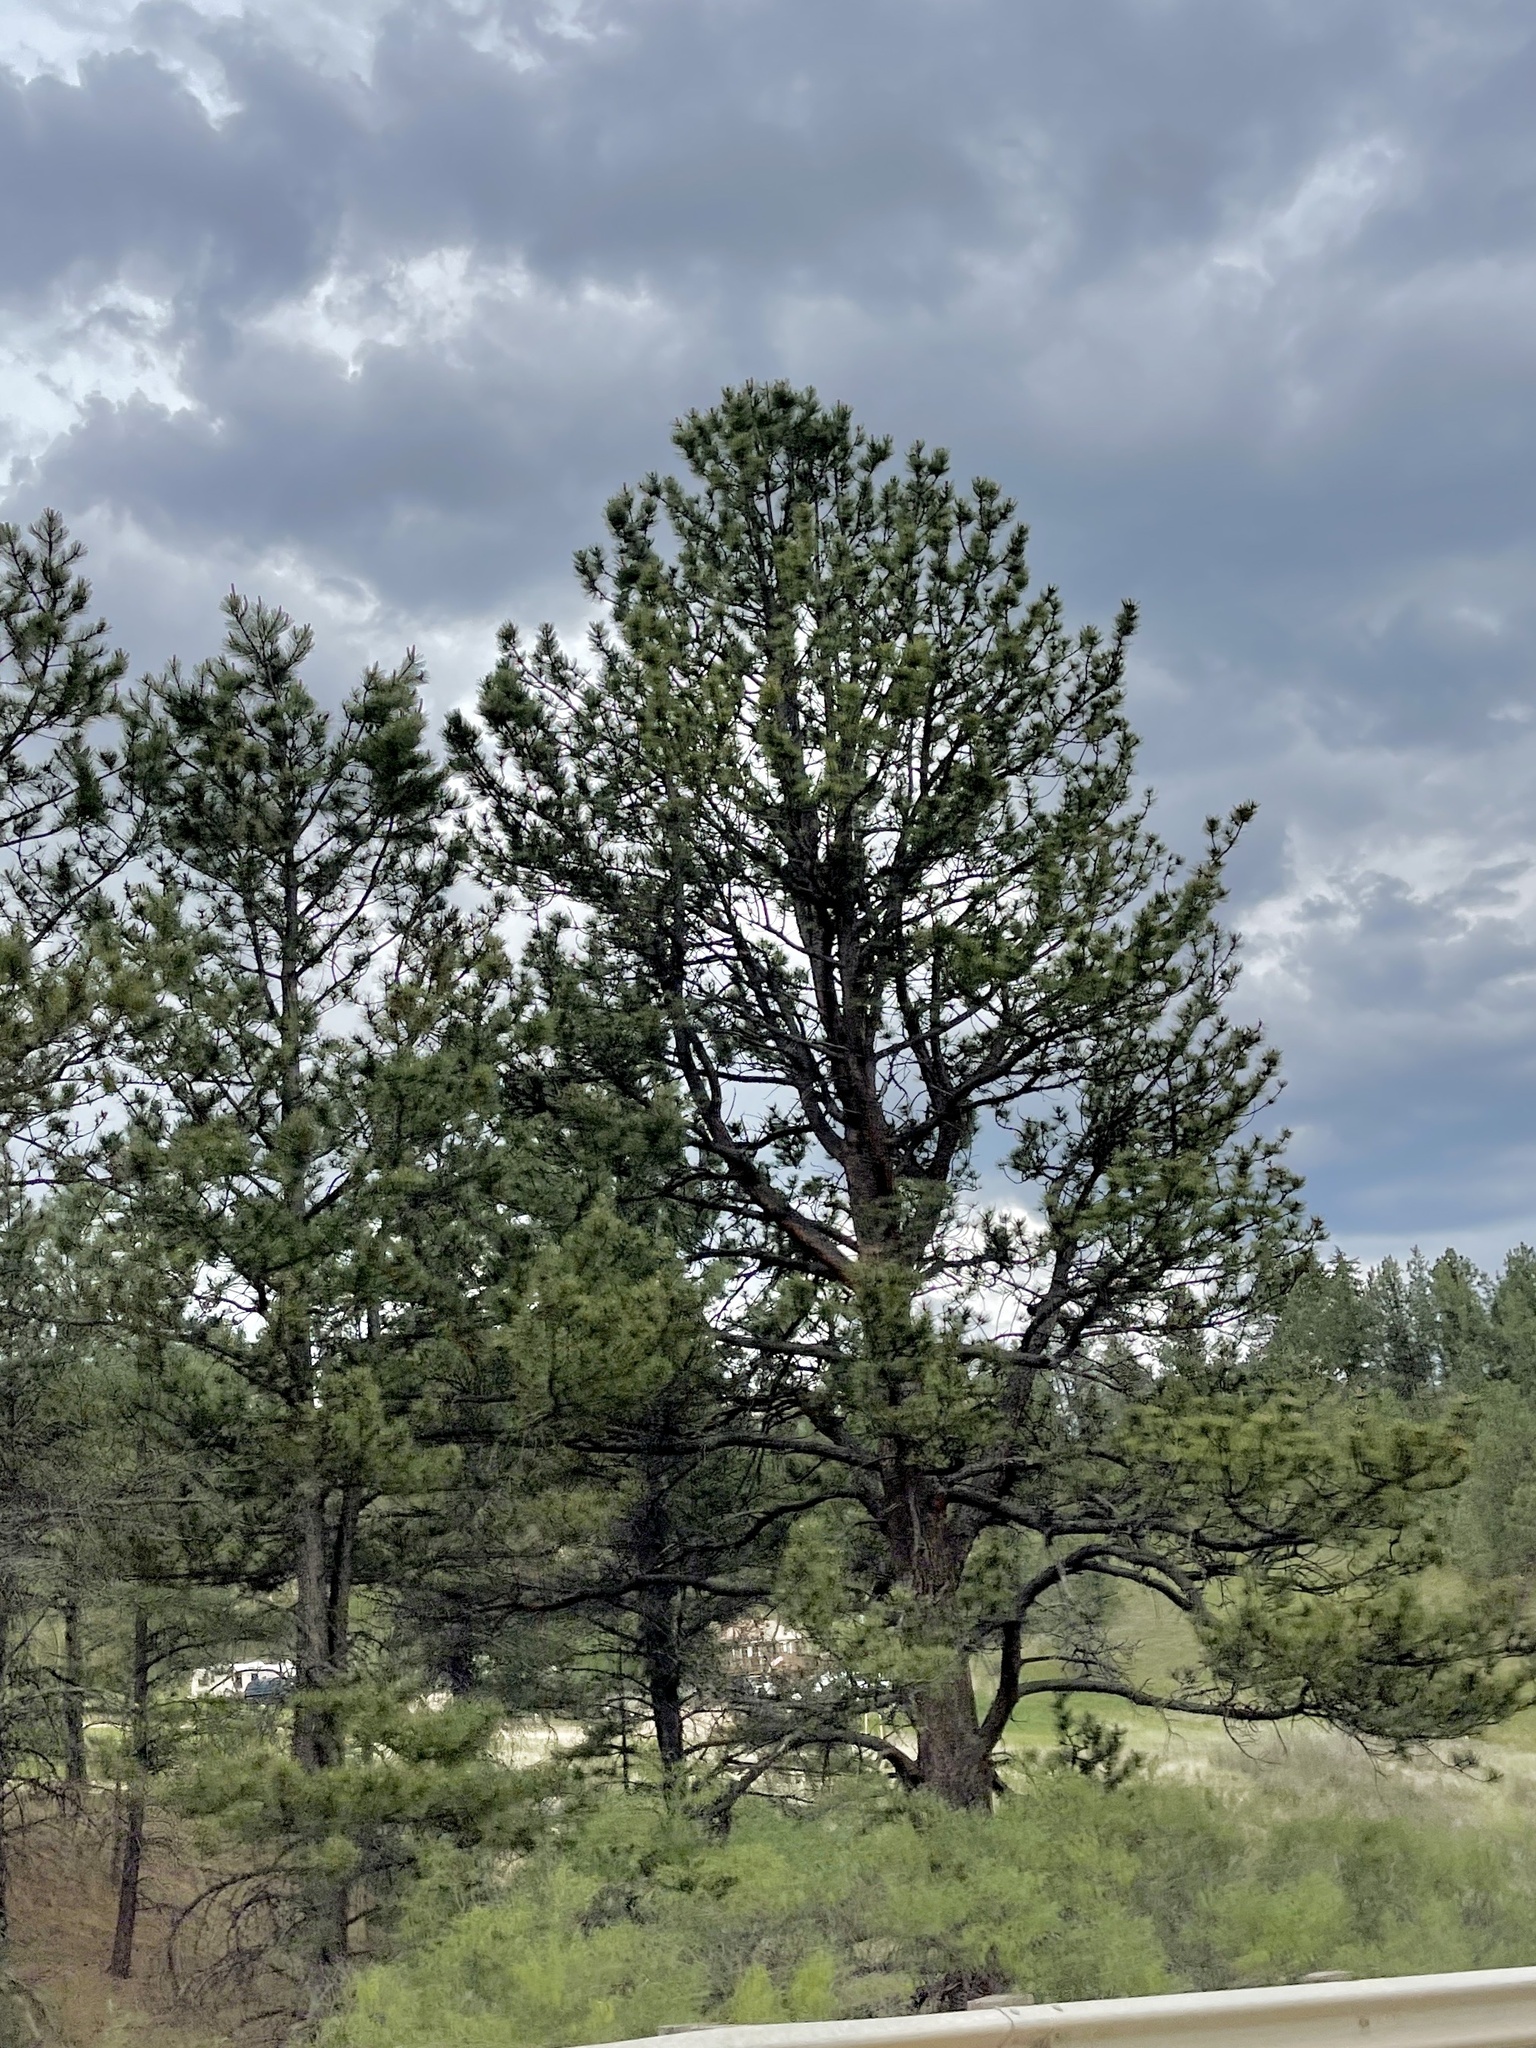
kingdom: Plantae
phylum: Tracheophyta
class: Pinopsida
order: Pinales
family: Pinaceae
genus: Pinus
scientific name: Pinus ponderosa
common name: Western yellow-pine
